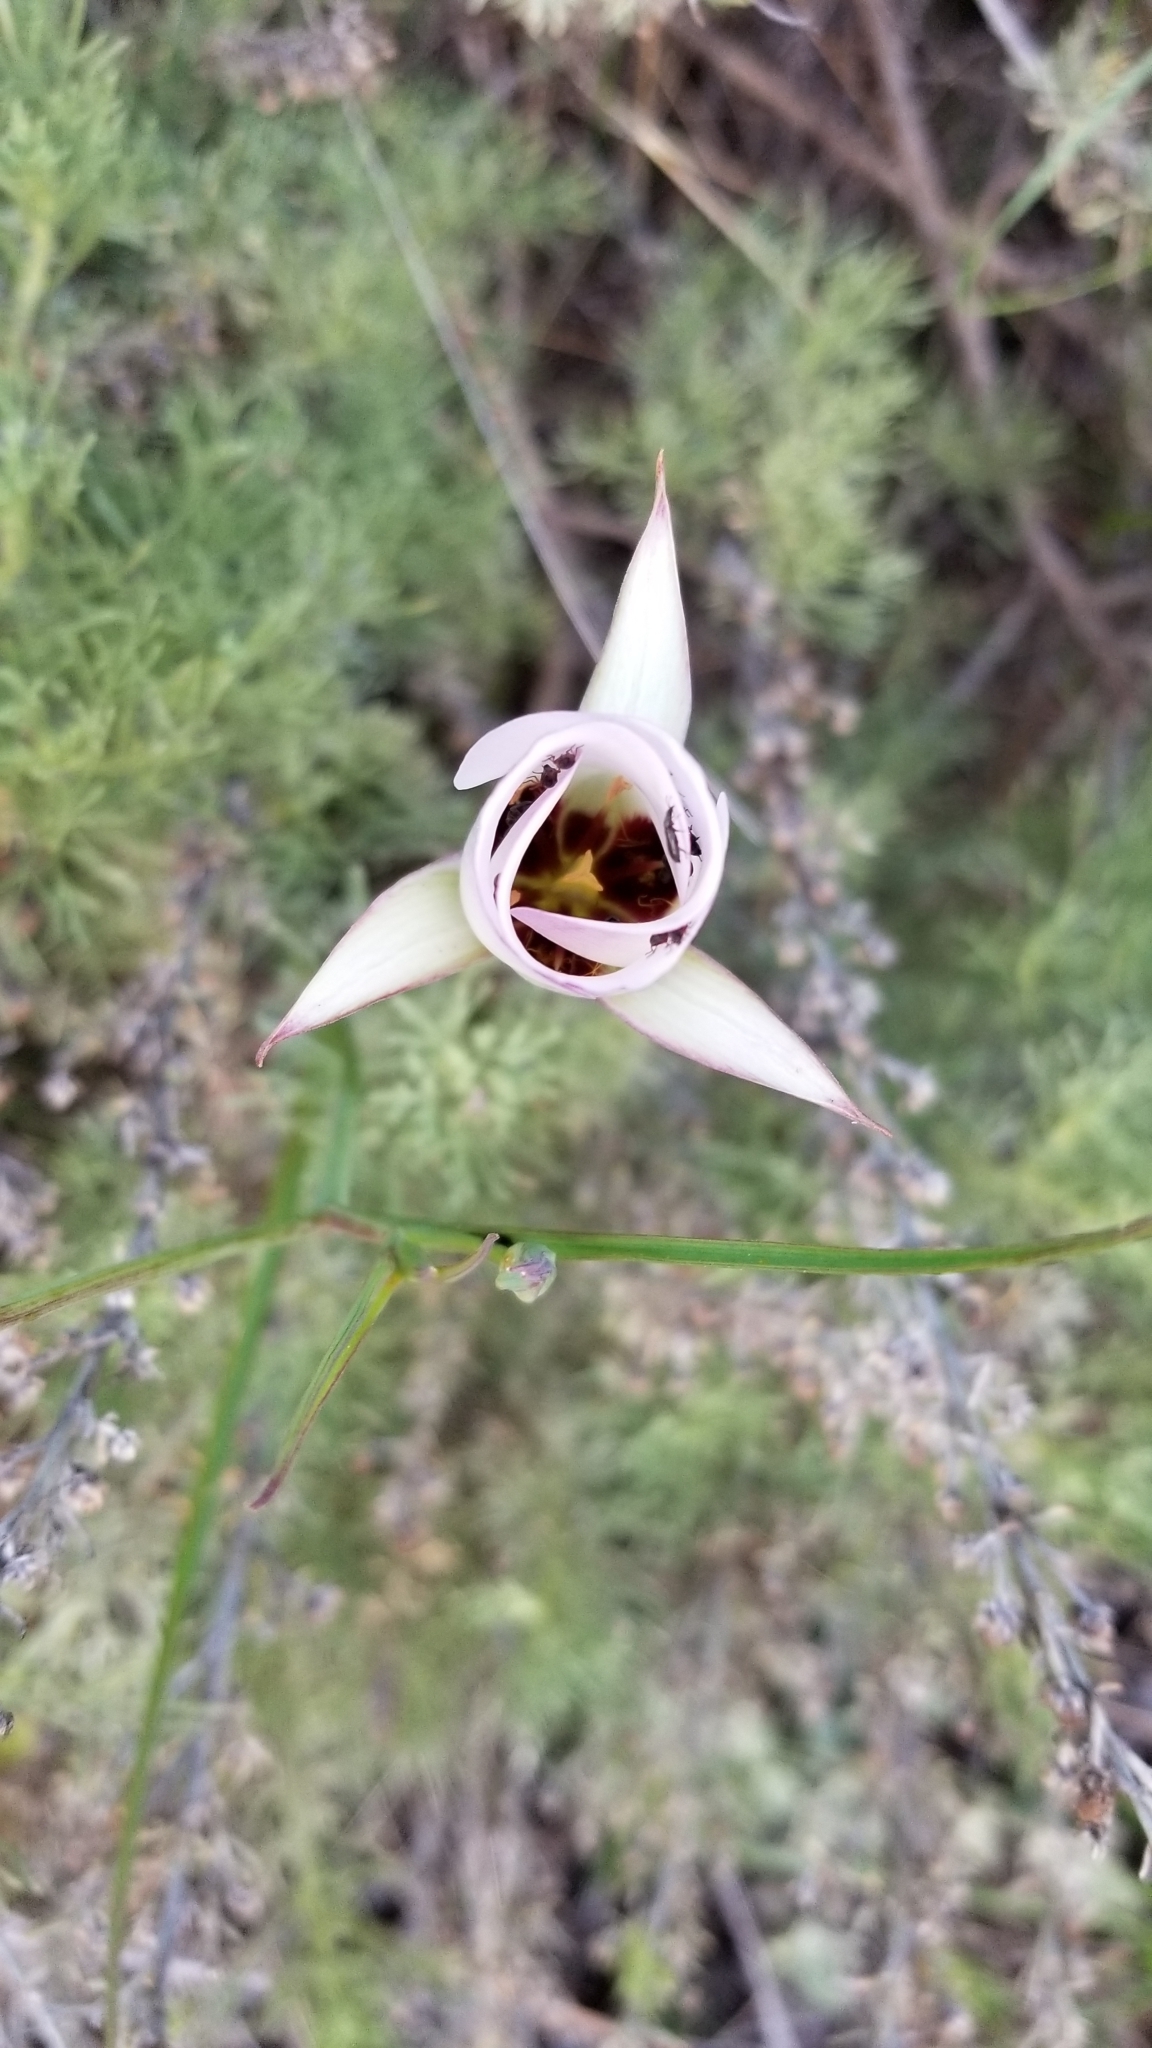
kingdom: Plantae
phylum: Tracheophyta
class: Liliopsida
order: Liliales
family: Liliaceae
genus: Calochortus
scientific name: Calochortus catalinae
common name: Catalina mariposa-lily
